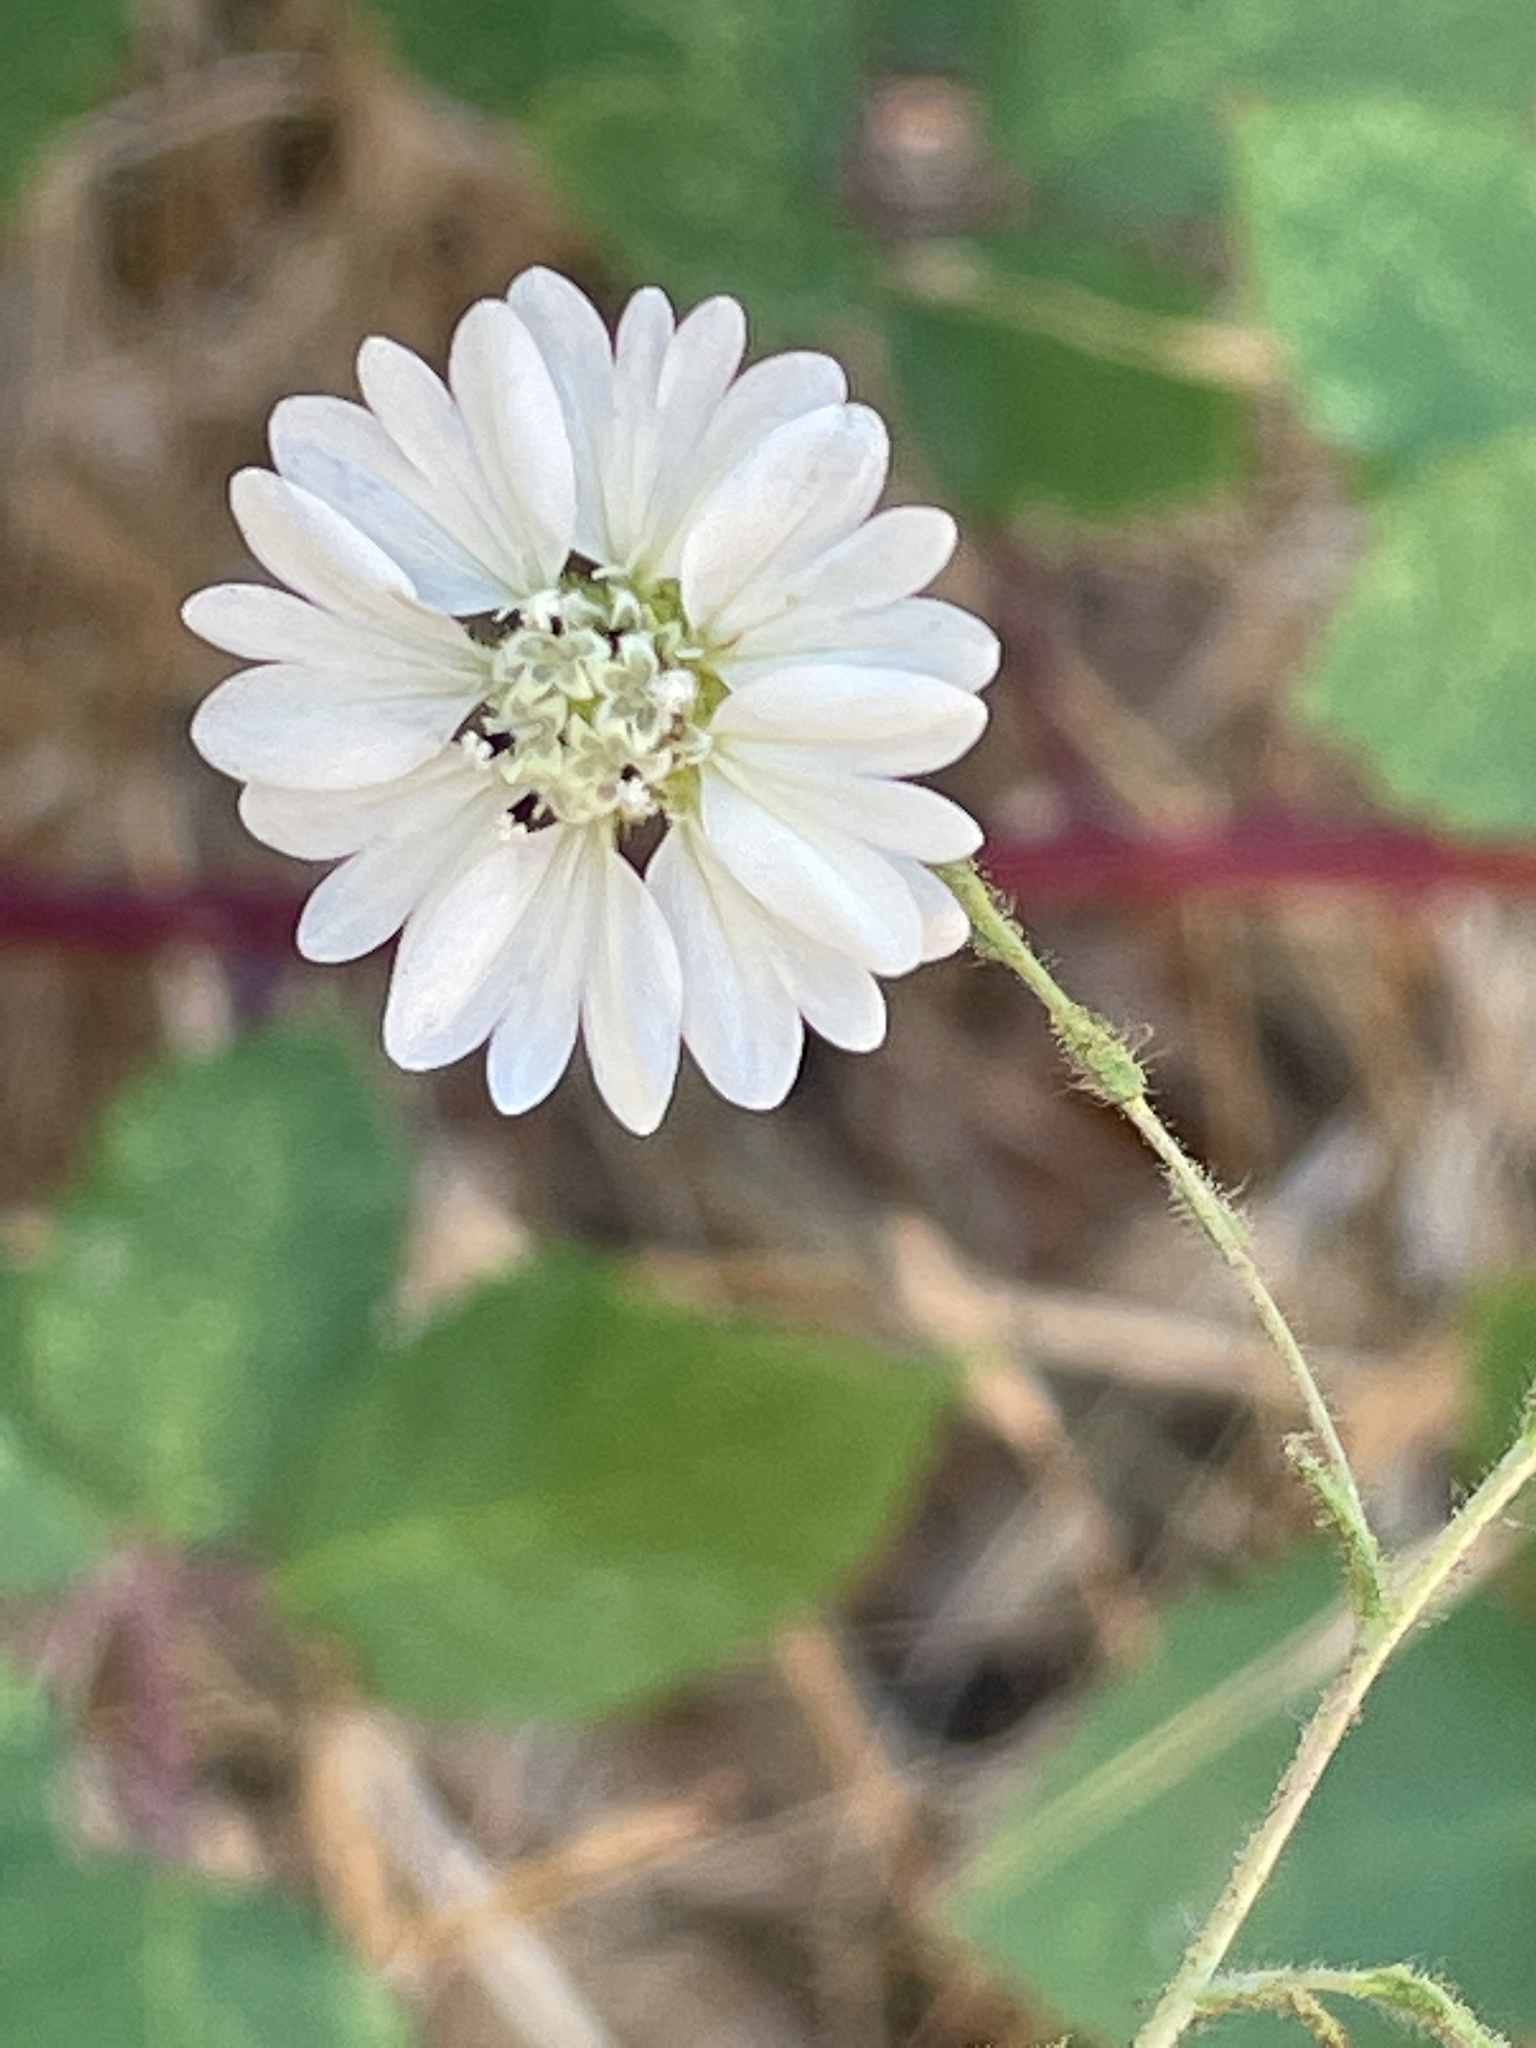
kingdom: Plantae
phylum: Tracheophyta
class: Magnoliopsida
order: Asterales
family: Asteraceae
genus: Hemizonia
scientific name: Hemizonia congesta
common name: Hayfield tarweed
